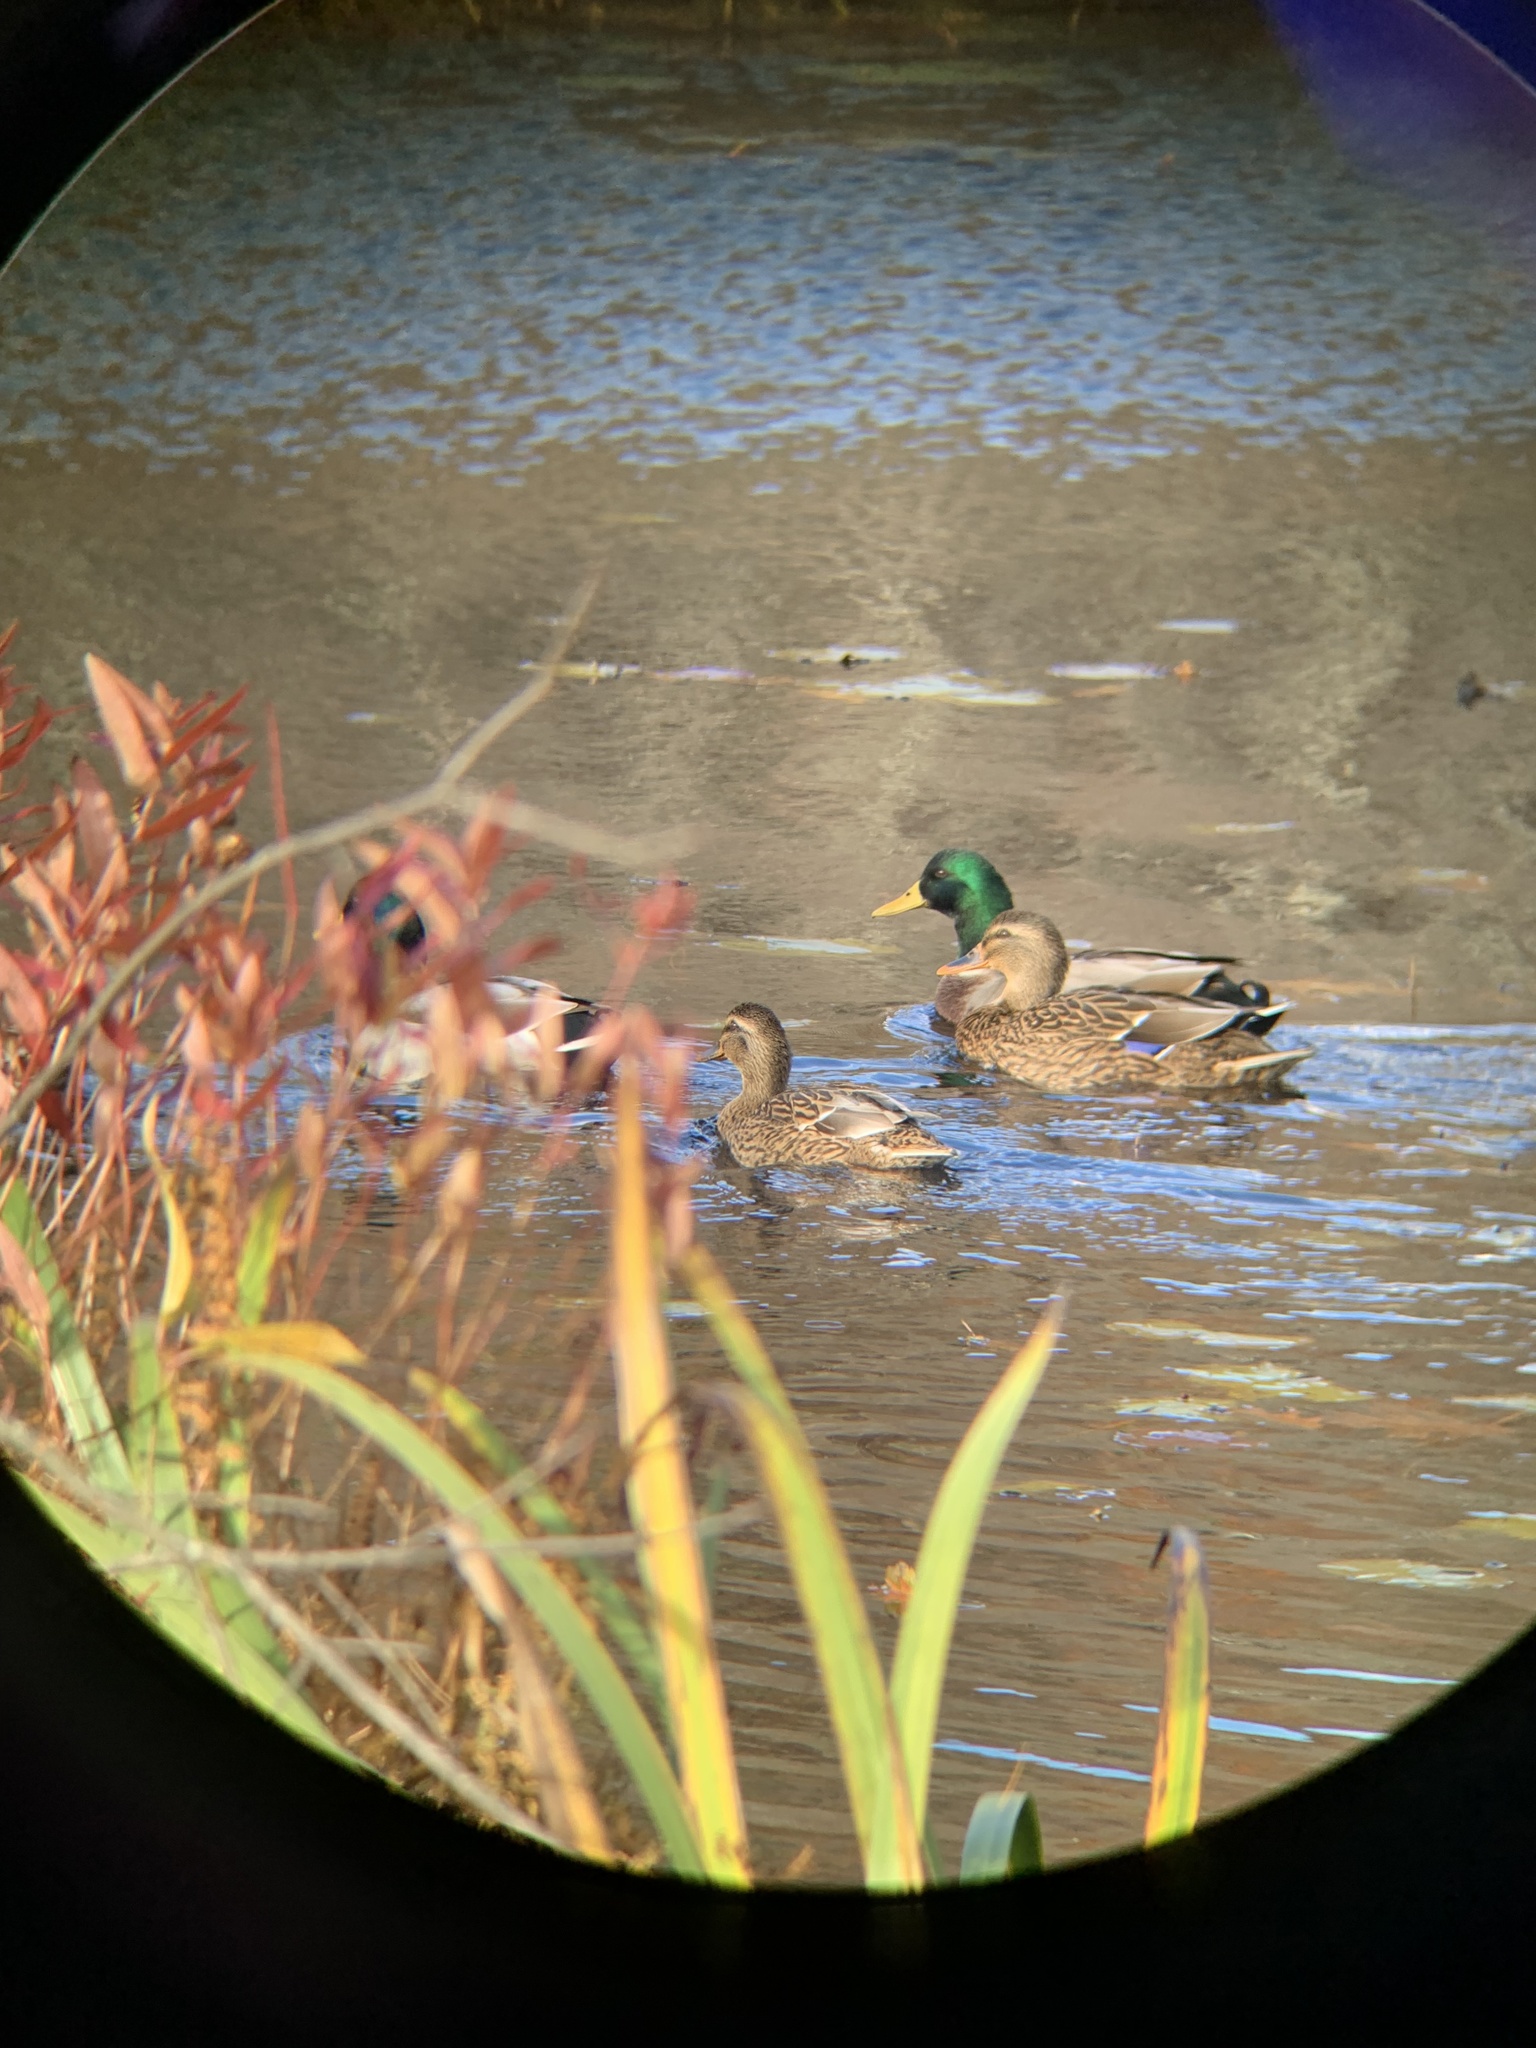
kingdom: Animalia
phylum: Chordata
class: Aves
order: Anseriformes
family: Anatidae
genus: Anas
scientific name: Anas platyrhynchos
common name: Mallard
